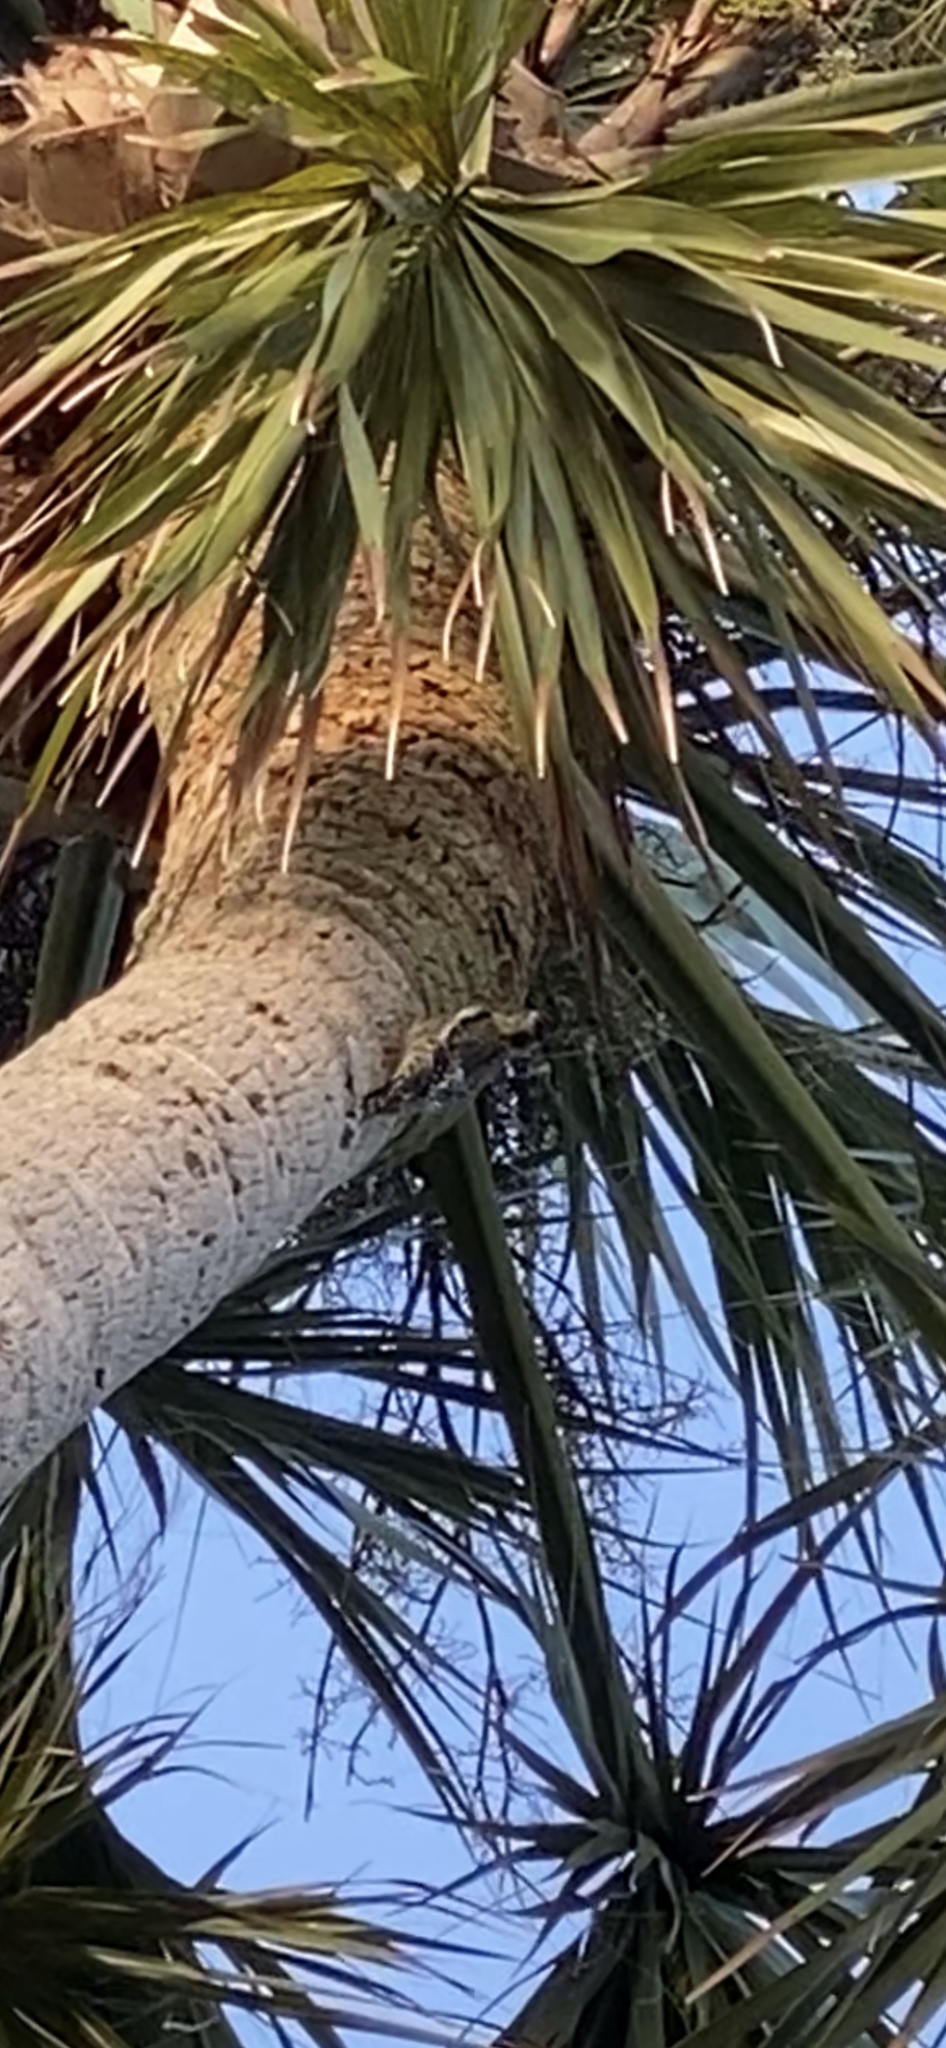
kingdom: Animalia
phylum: Chordata
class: Aves
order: Piciformes
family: Picidae
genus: Sphyrapicus
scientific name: Sphyrapicus varius
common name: Yellow-bellied sapsucker
